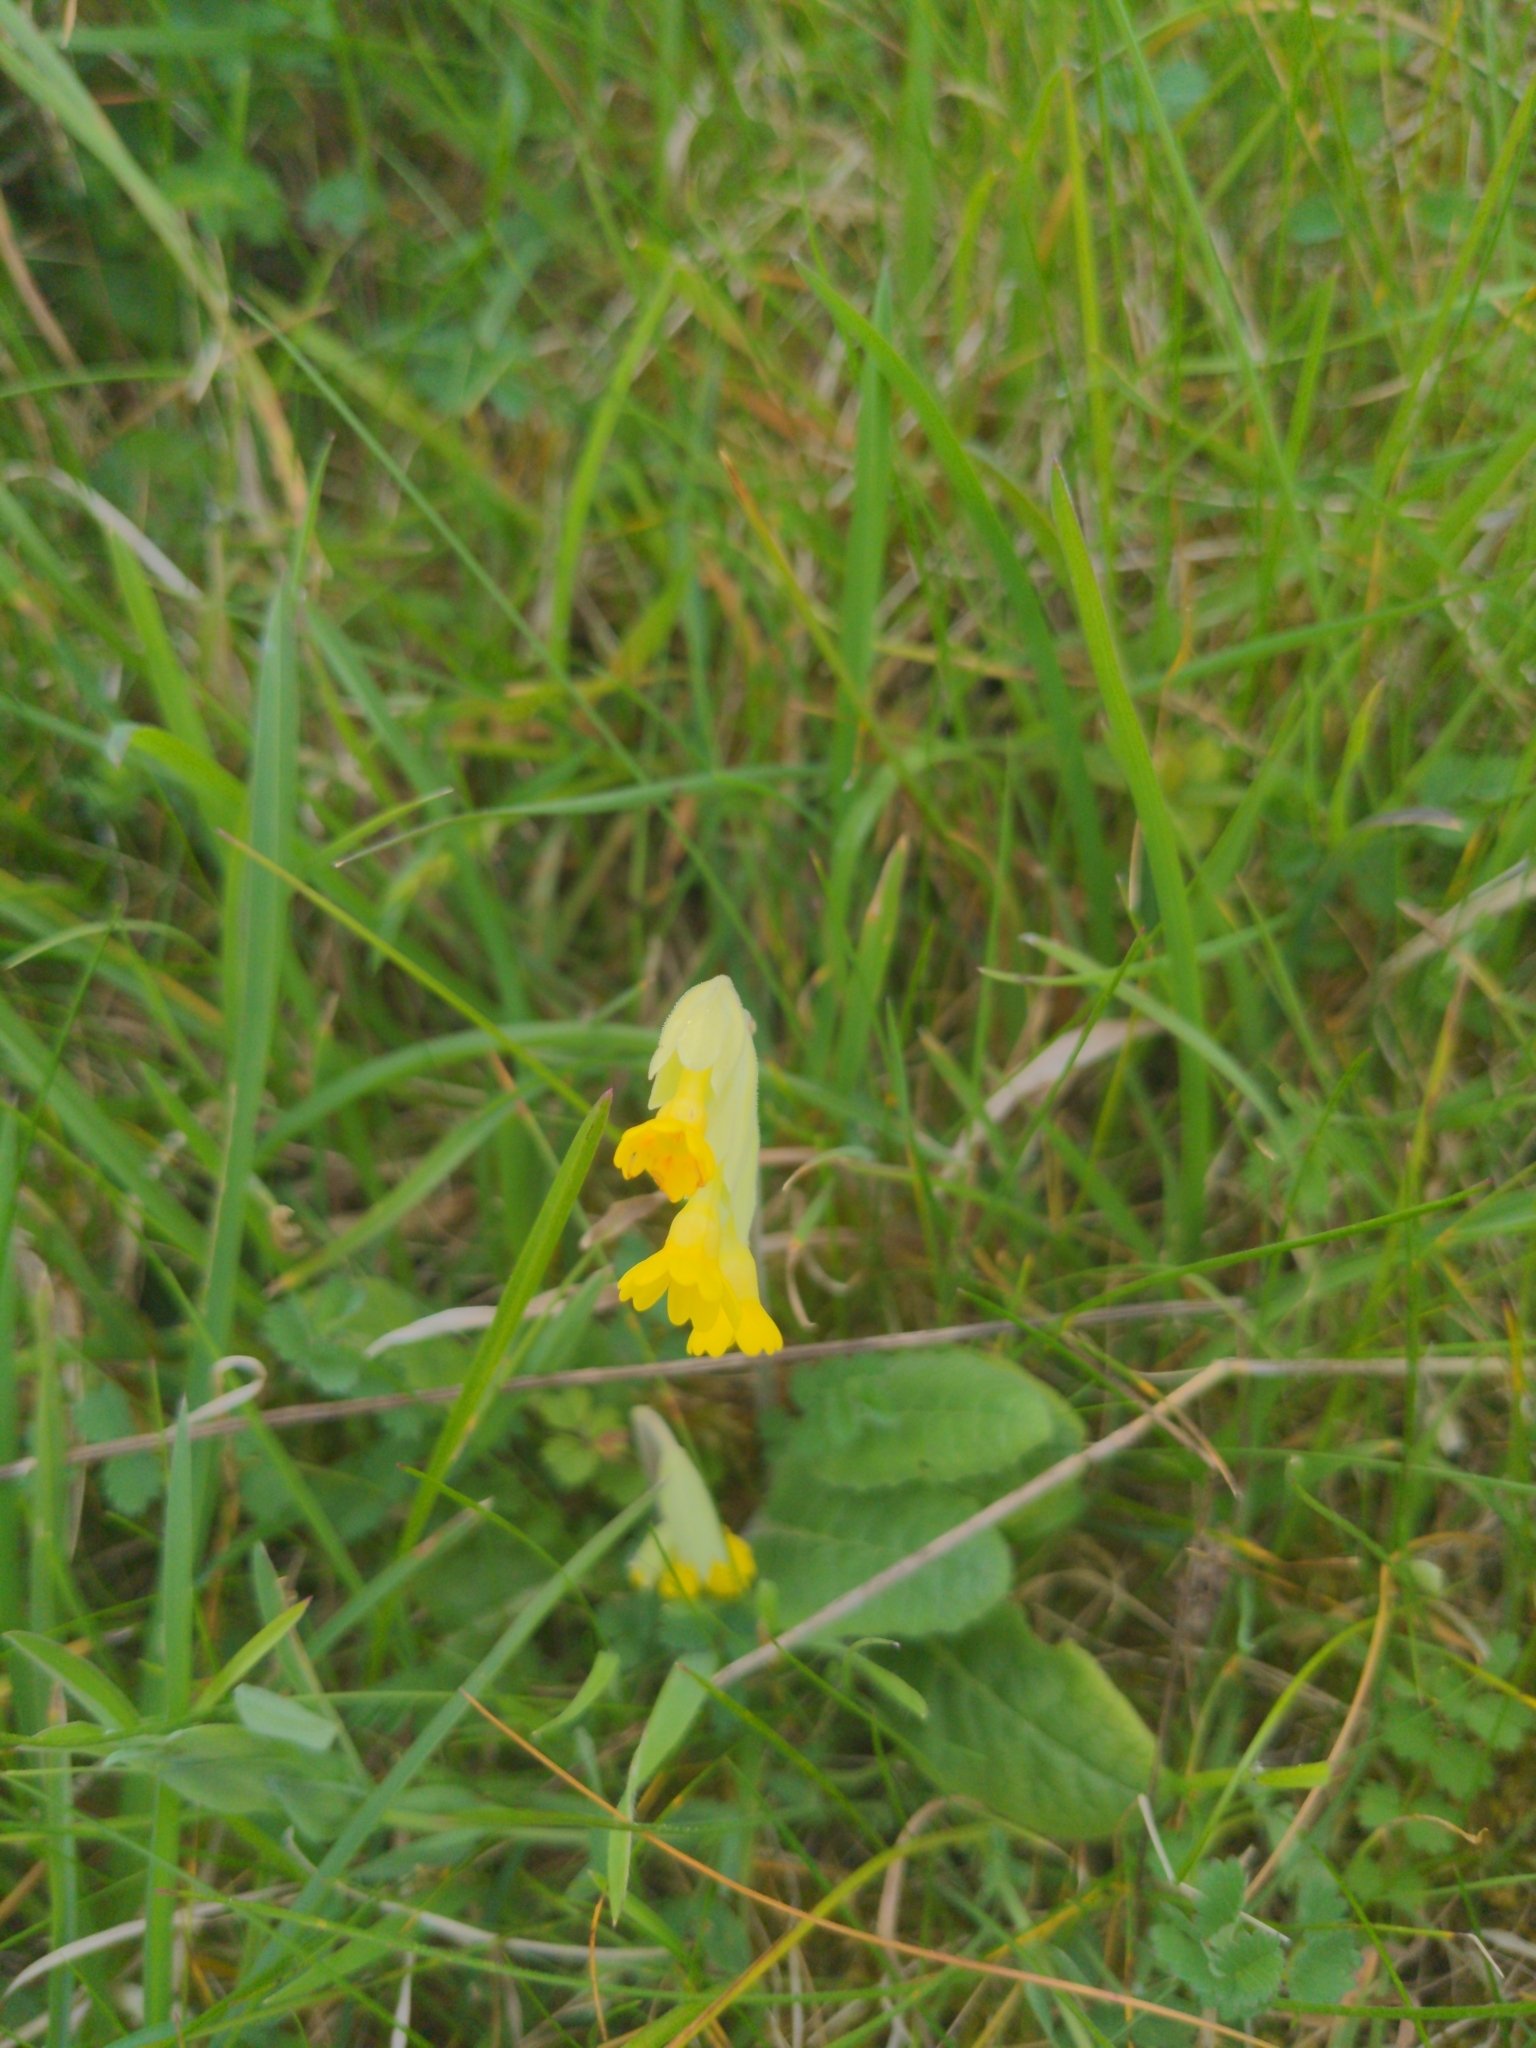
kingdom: Plantae
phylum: Tracheophyta
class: Magnoliopsida
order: Ericales
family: Primulaceae
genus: Primula
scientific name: Primula veris
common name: Cowslip
